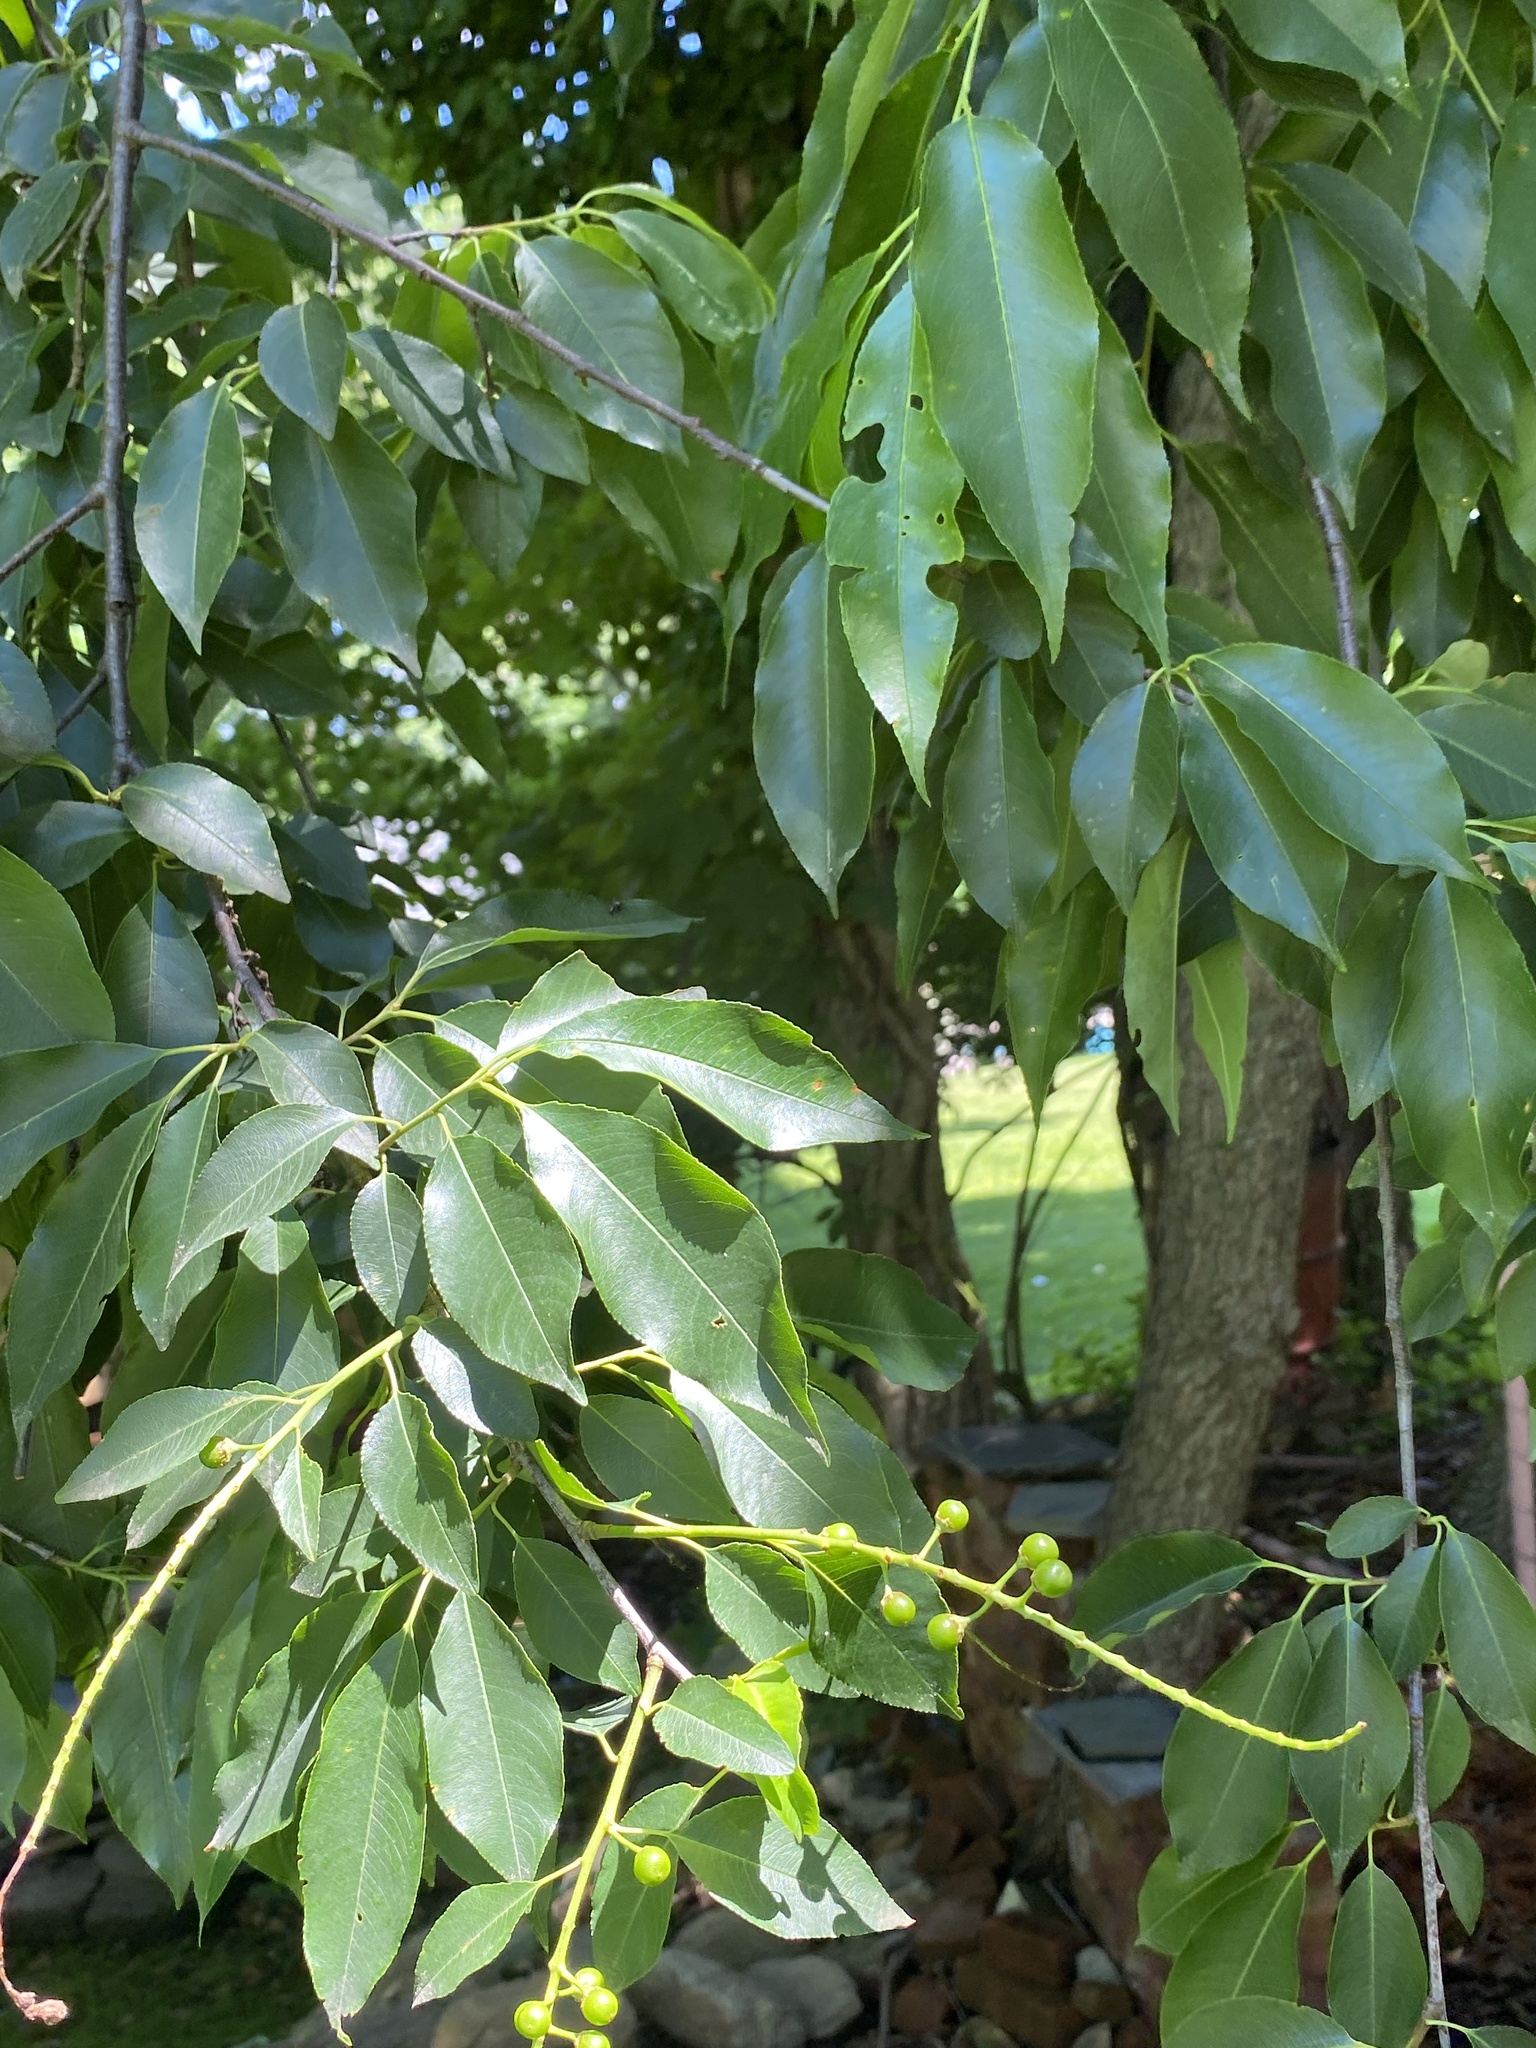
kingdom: Plantae
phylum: Tracheophyta
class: Magnoliopsida
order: Rosales
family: Rosaceae
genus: Prunus
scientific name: Prunus serotina
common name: Black cherry
